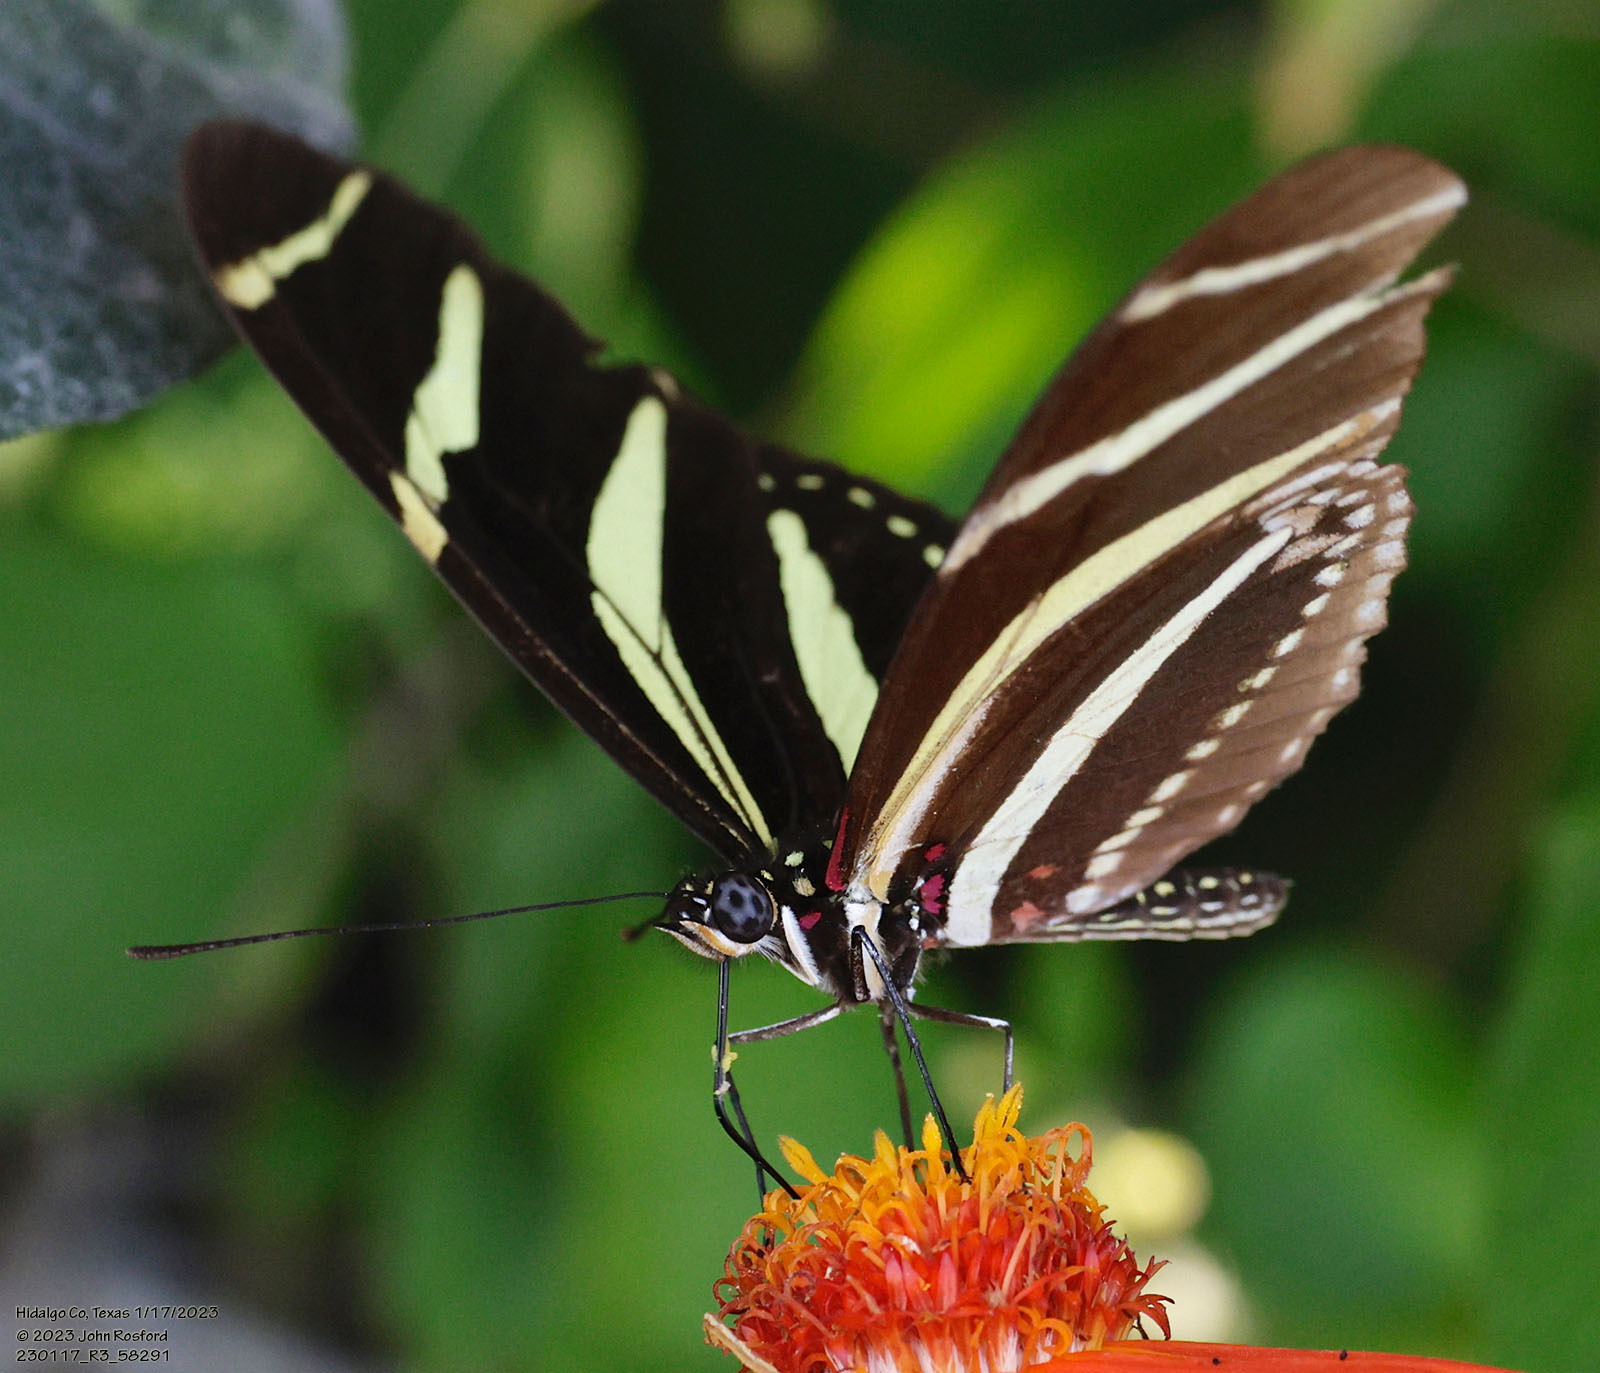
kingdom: Animalia
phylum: Arthropoda
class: Insecta
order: Lepidoptera
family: Nymphalidae
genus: Heliconius
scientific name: Heliconius charithonia
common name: Zebra long wing
